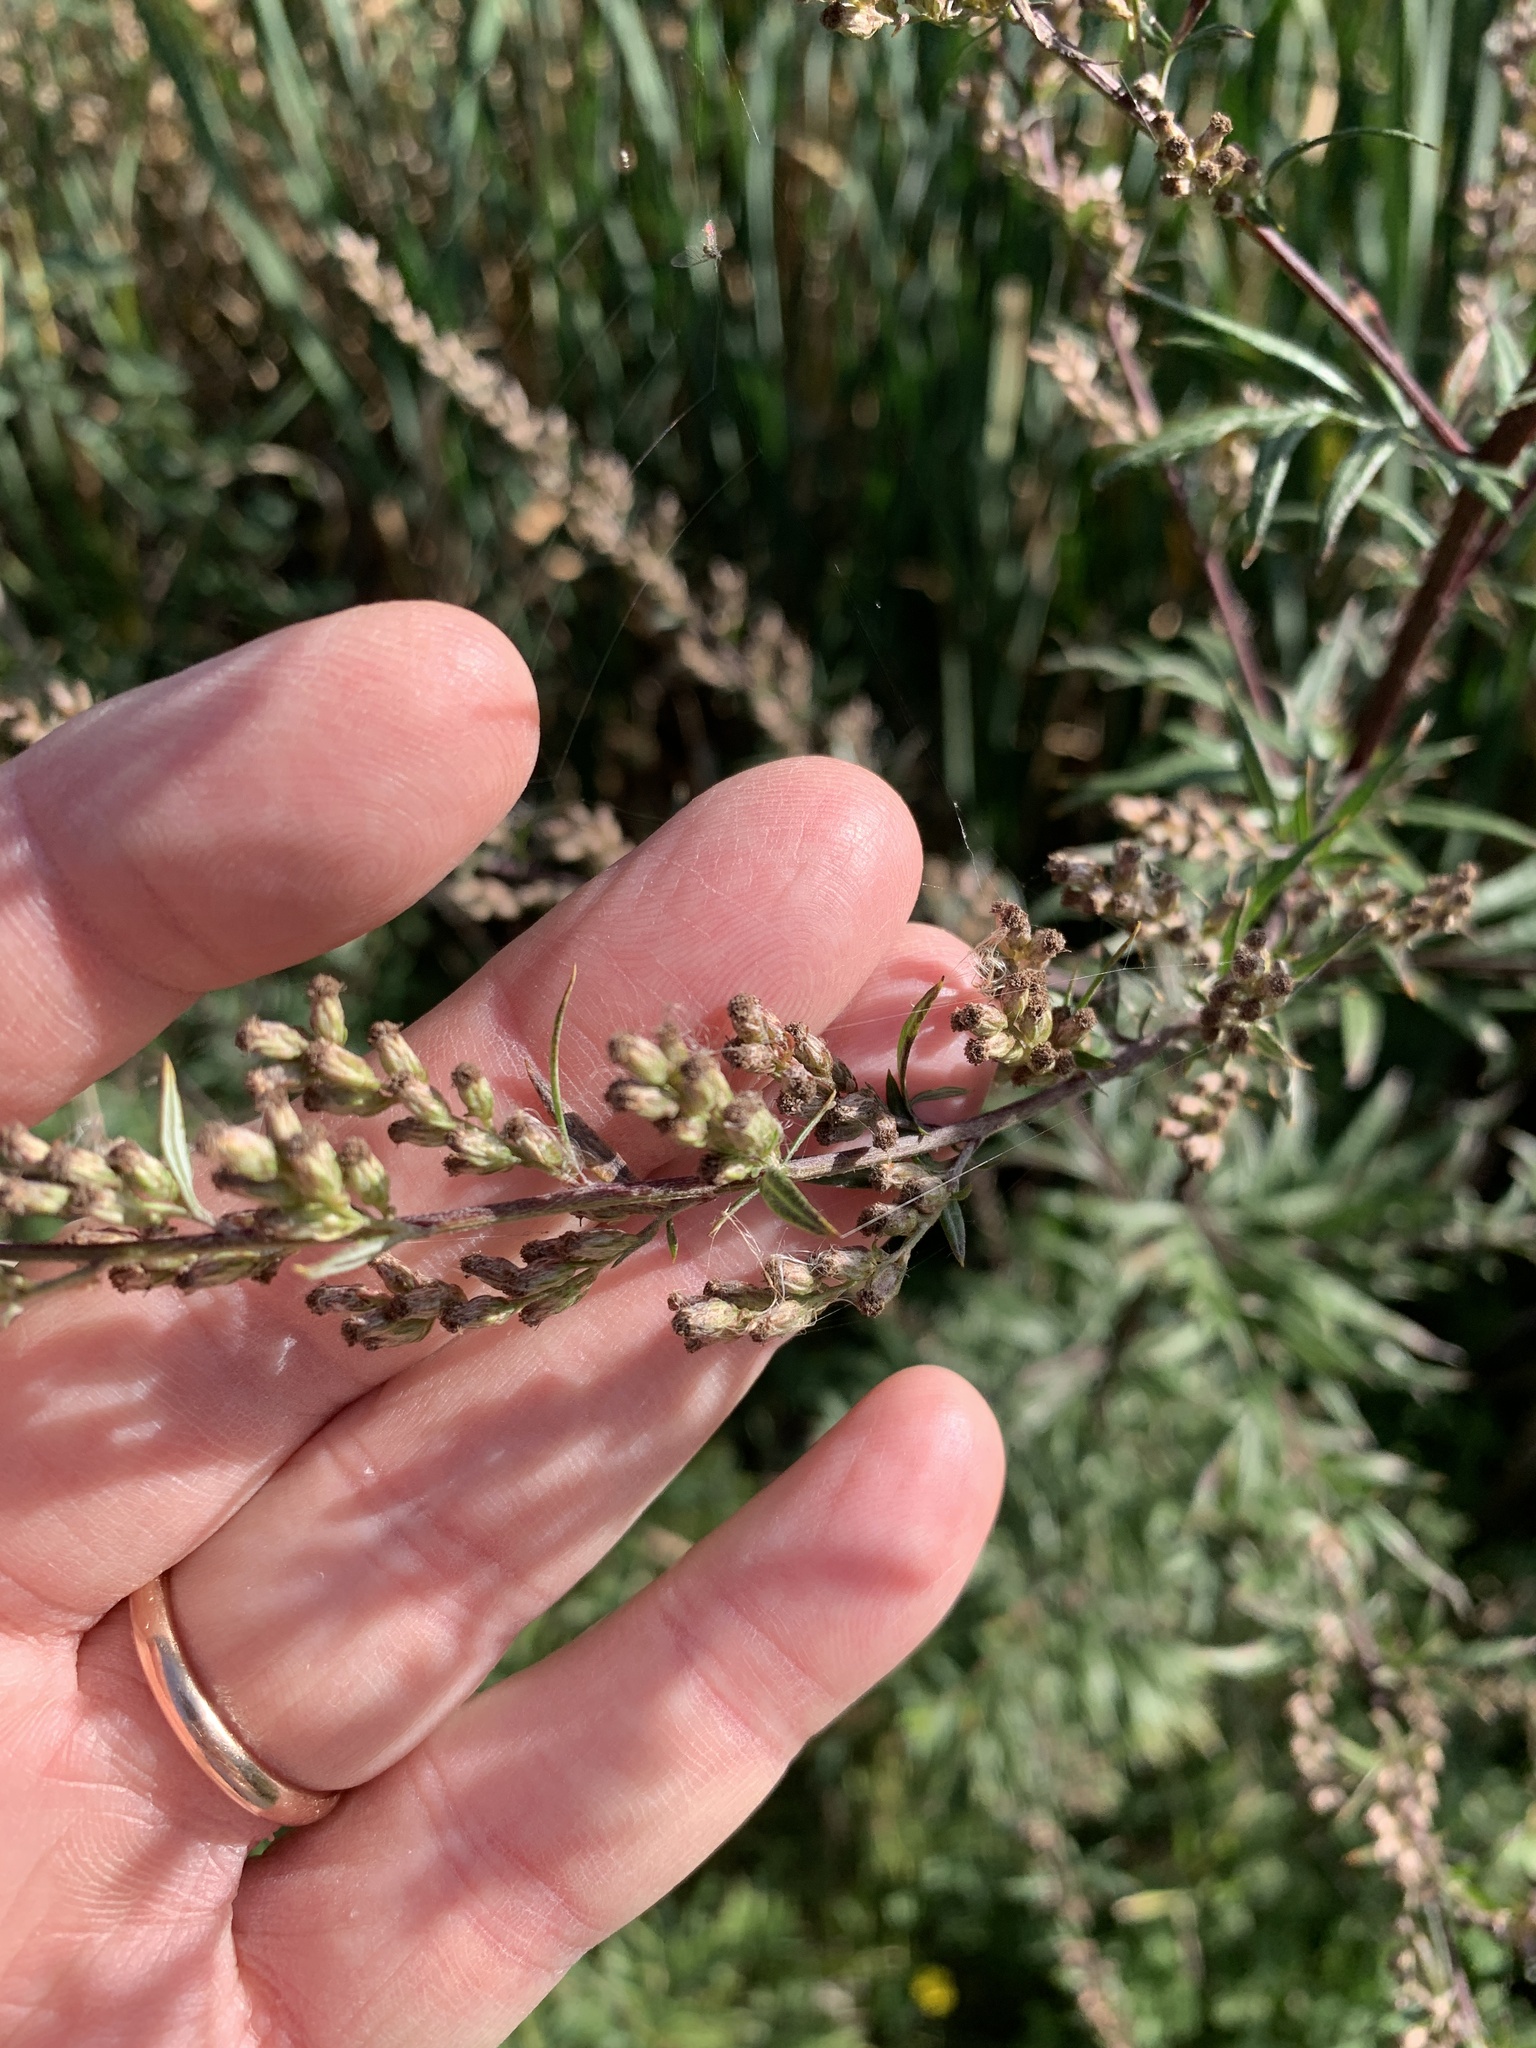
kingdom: Plantae
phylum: Tracheophyta
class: Magnoliopsida
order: Asterales
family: Asteraceae
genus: Artemisia
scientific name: Artemisia vulgaris
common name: Mugwort
